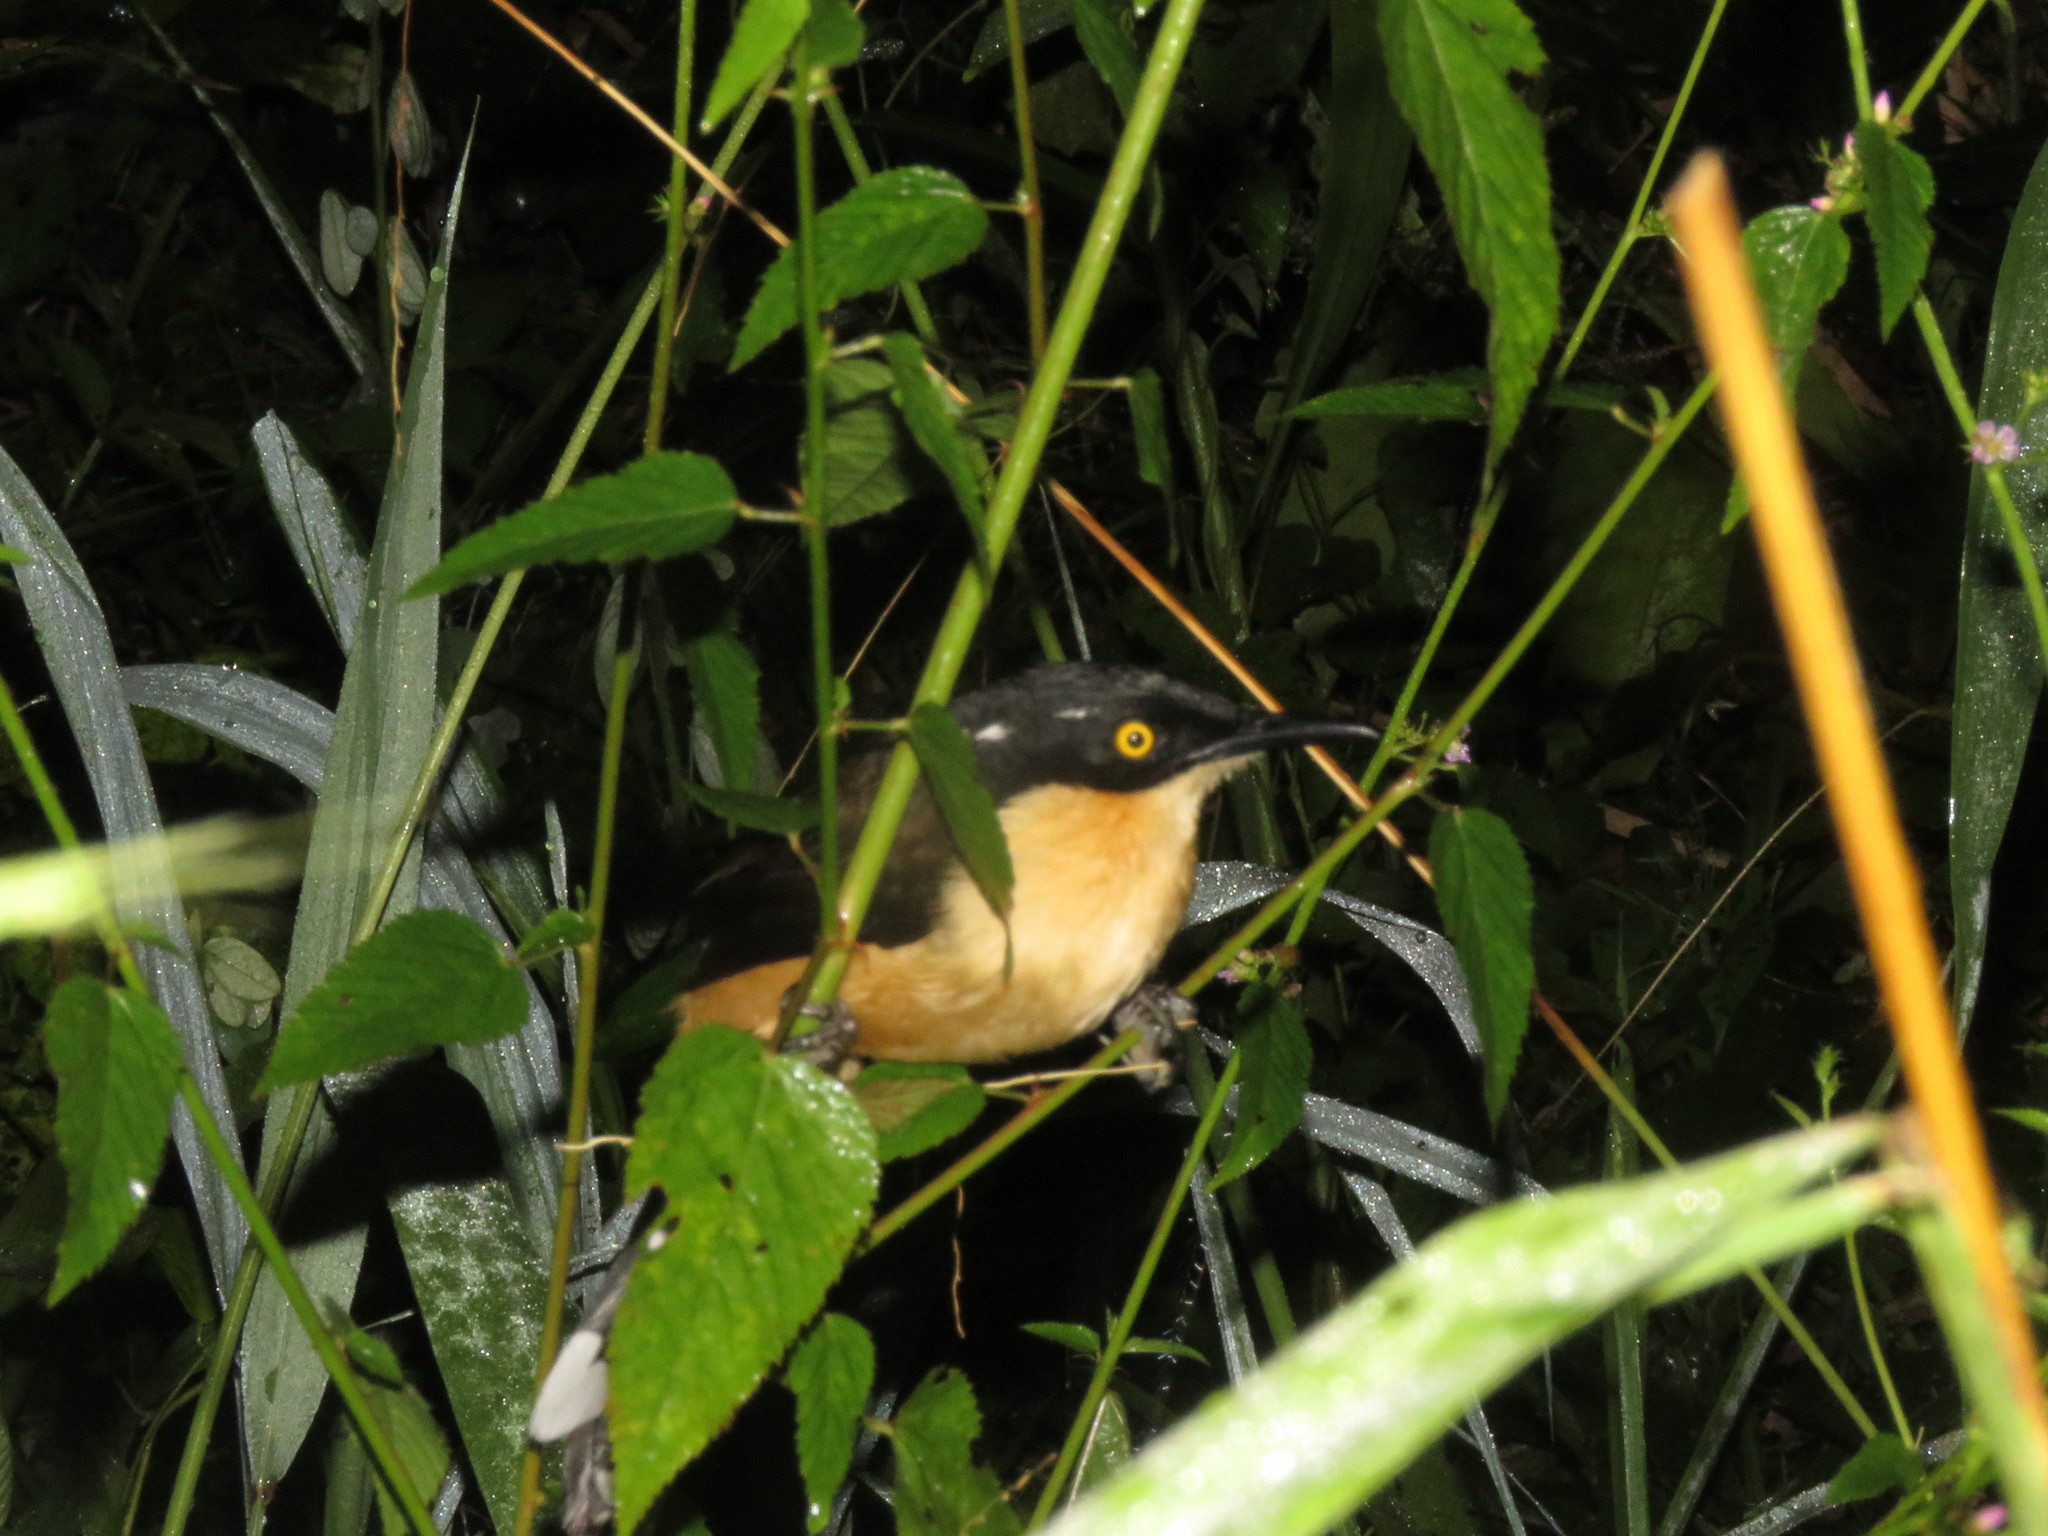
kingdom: Animalia
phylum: Chordata
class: Aves
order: Passeriformes
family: Donacobiidae
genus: Donacobius
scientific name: Donacobius atricapilla
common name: Black-capped donacobius
